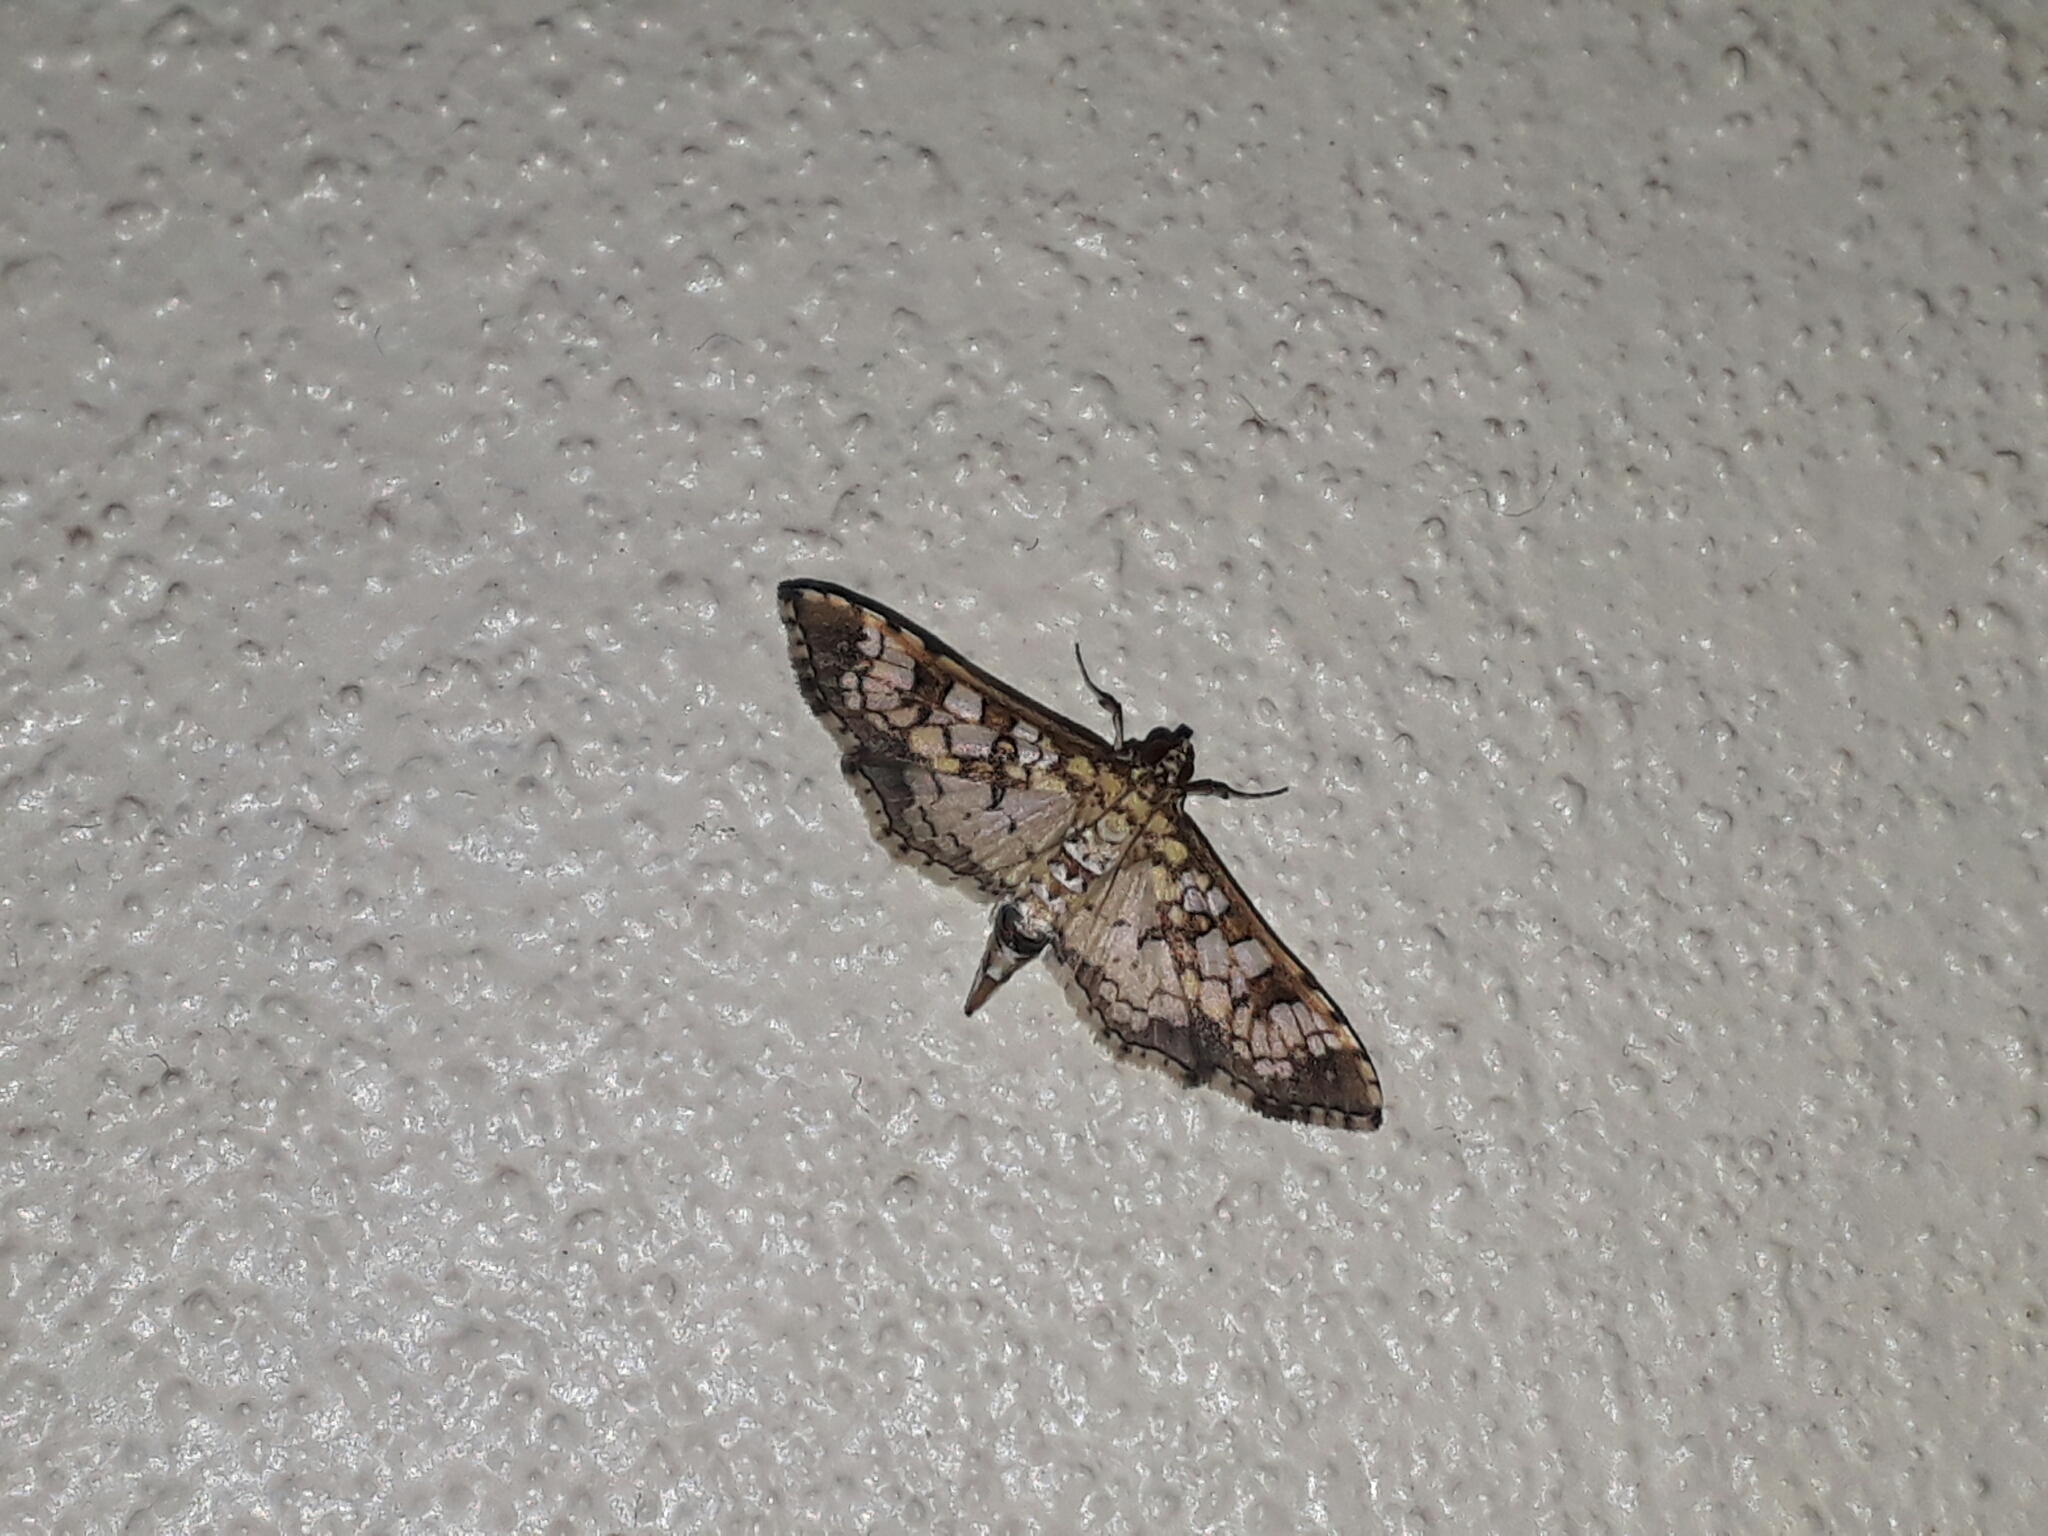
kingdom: Animalia
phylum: Arthropoda
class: Insecta
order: Lepidoptera
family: Crambidae
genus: Samea
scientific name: Samea ecclesialis
